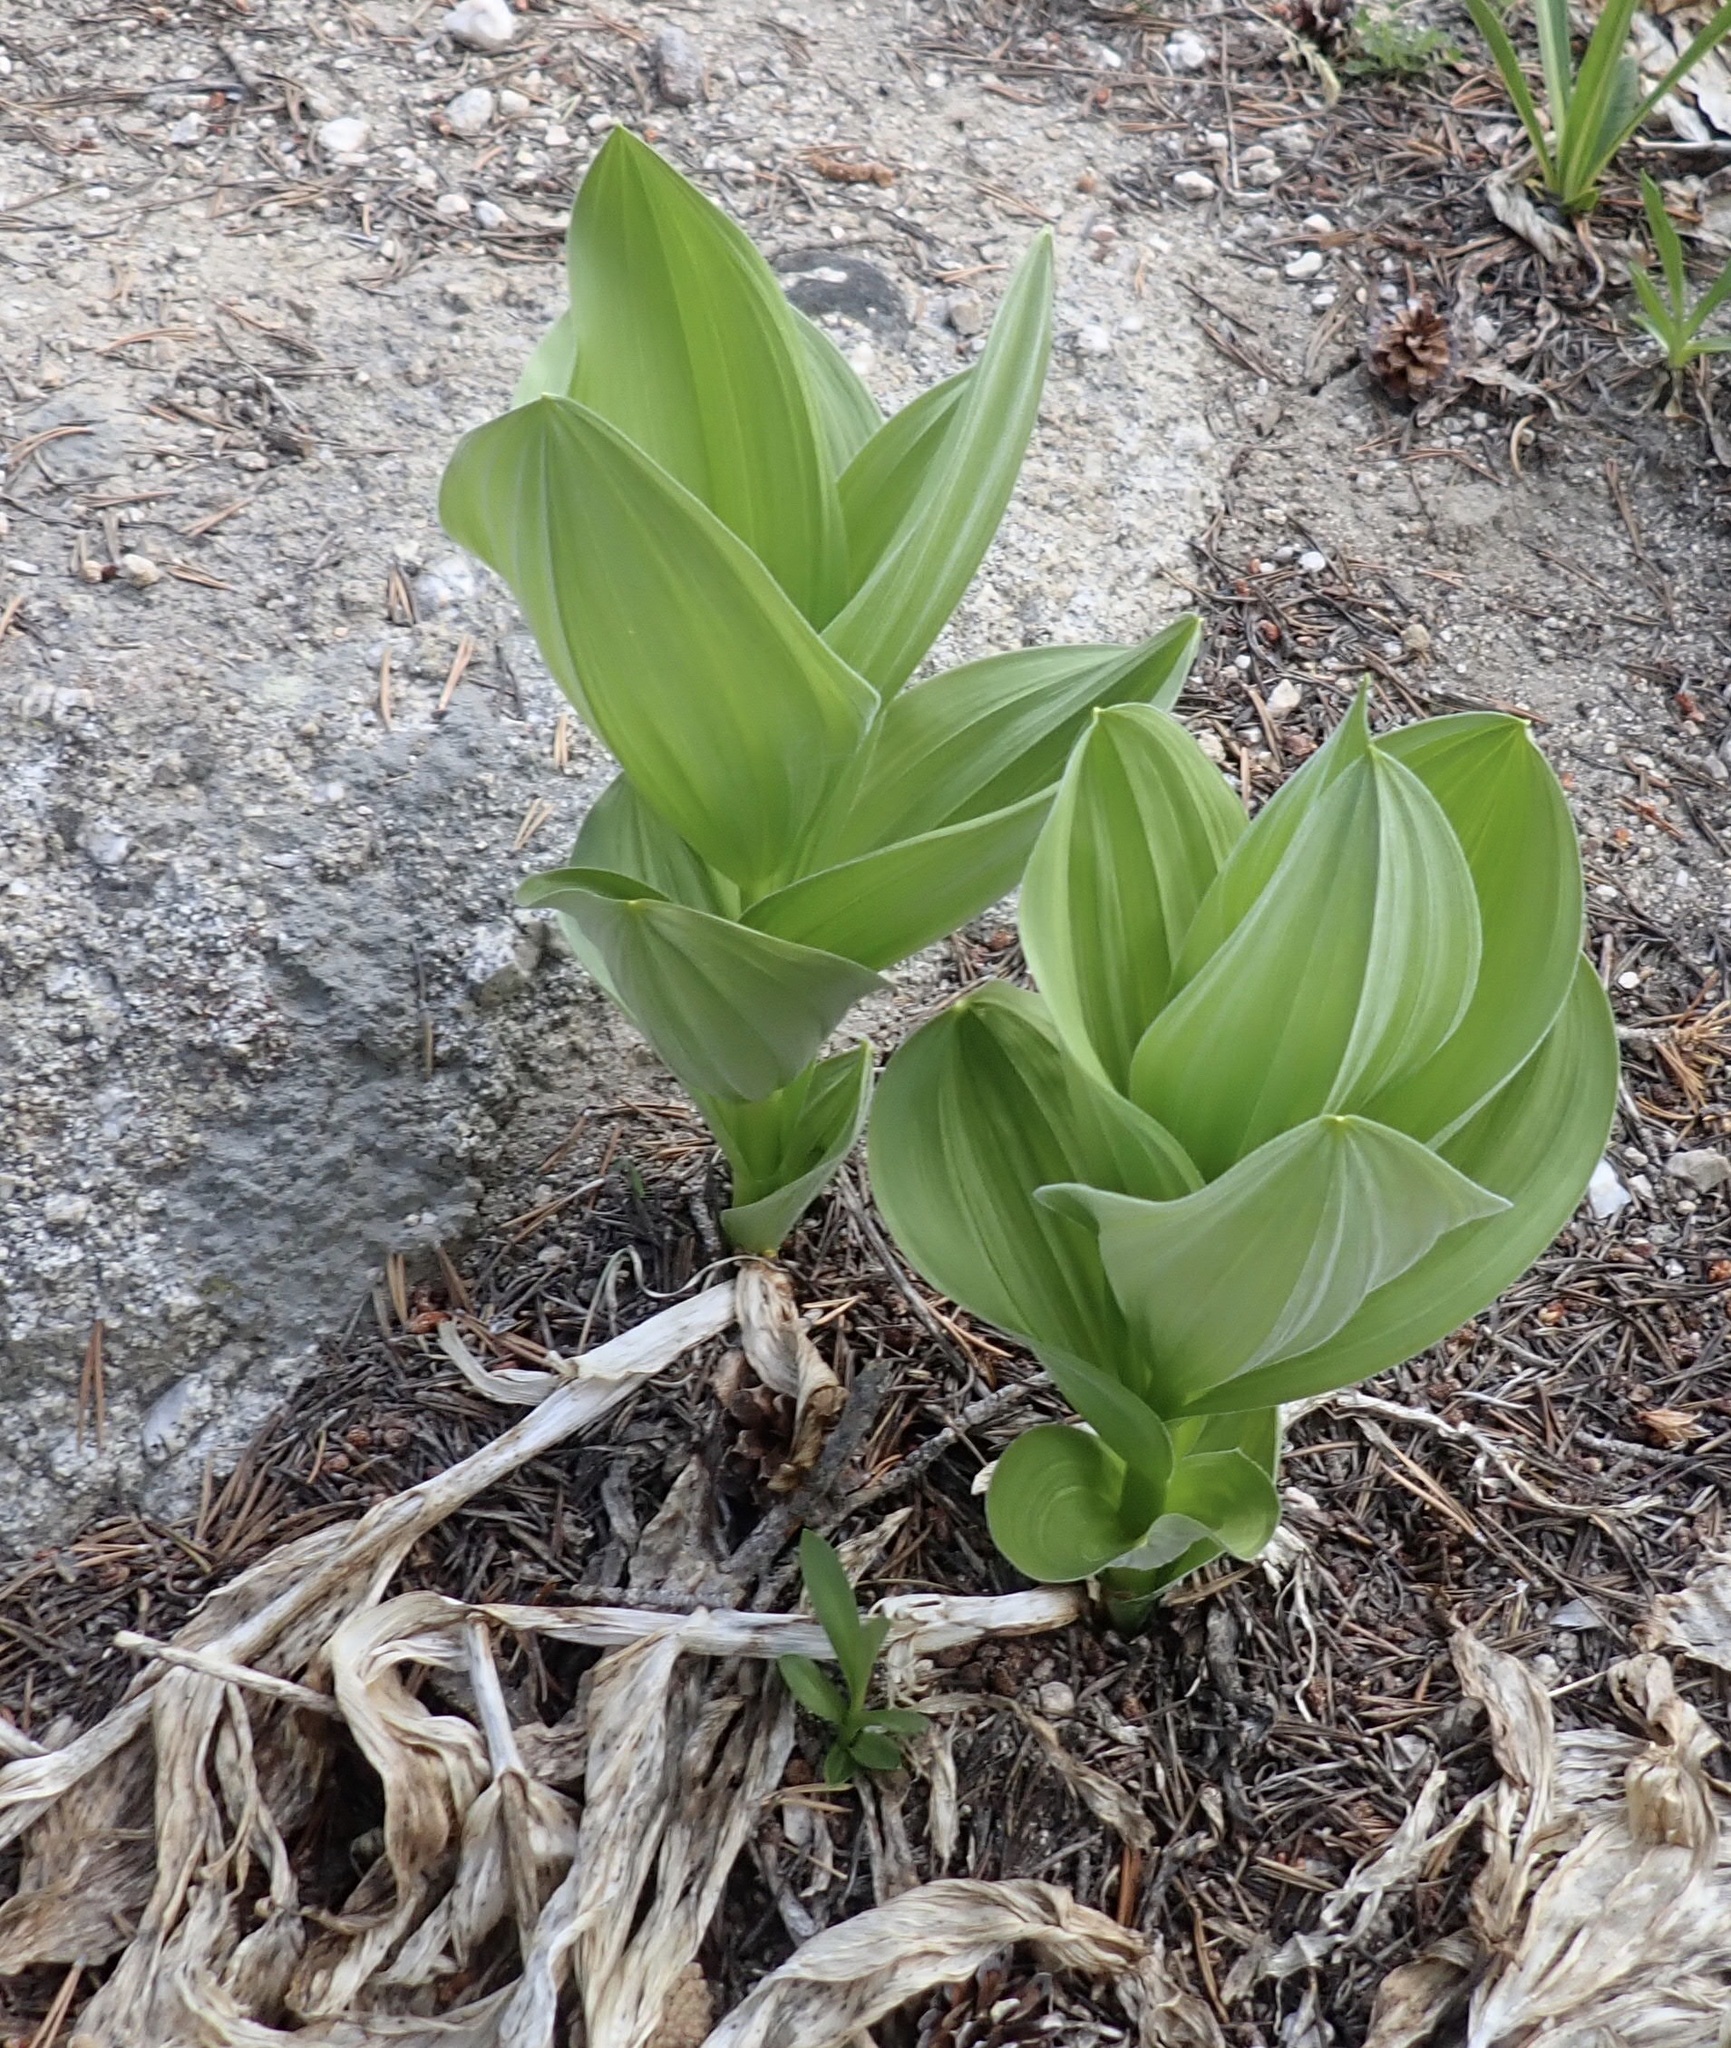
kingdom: Plantae
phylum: Tracheophyta
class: Liliopsida
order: Liliales
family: Melanthiaceae
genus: Veratrum
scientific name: Veratrum californicum
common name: California veratrum
